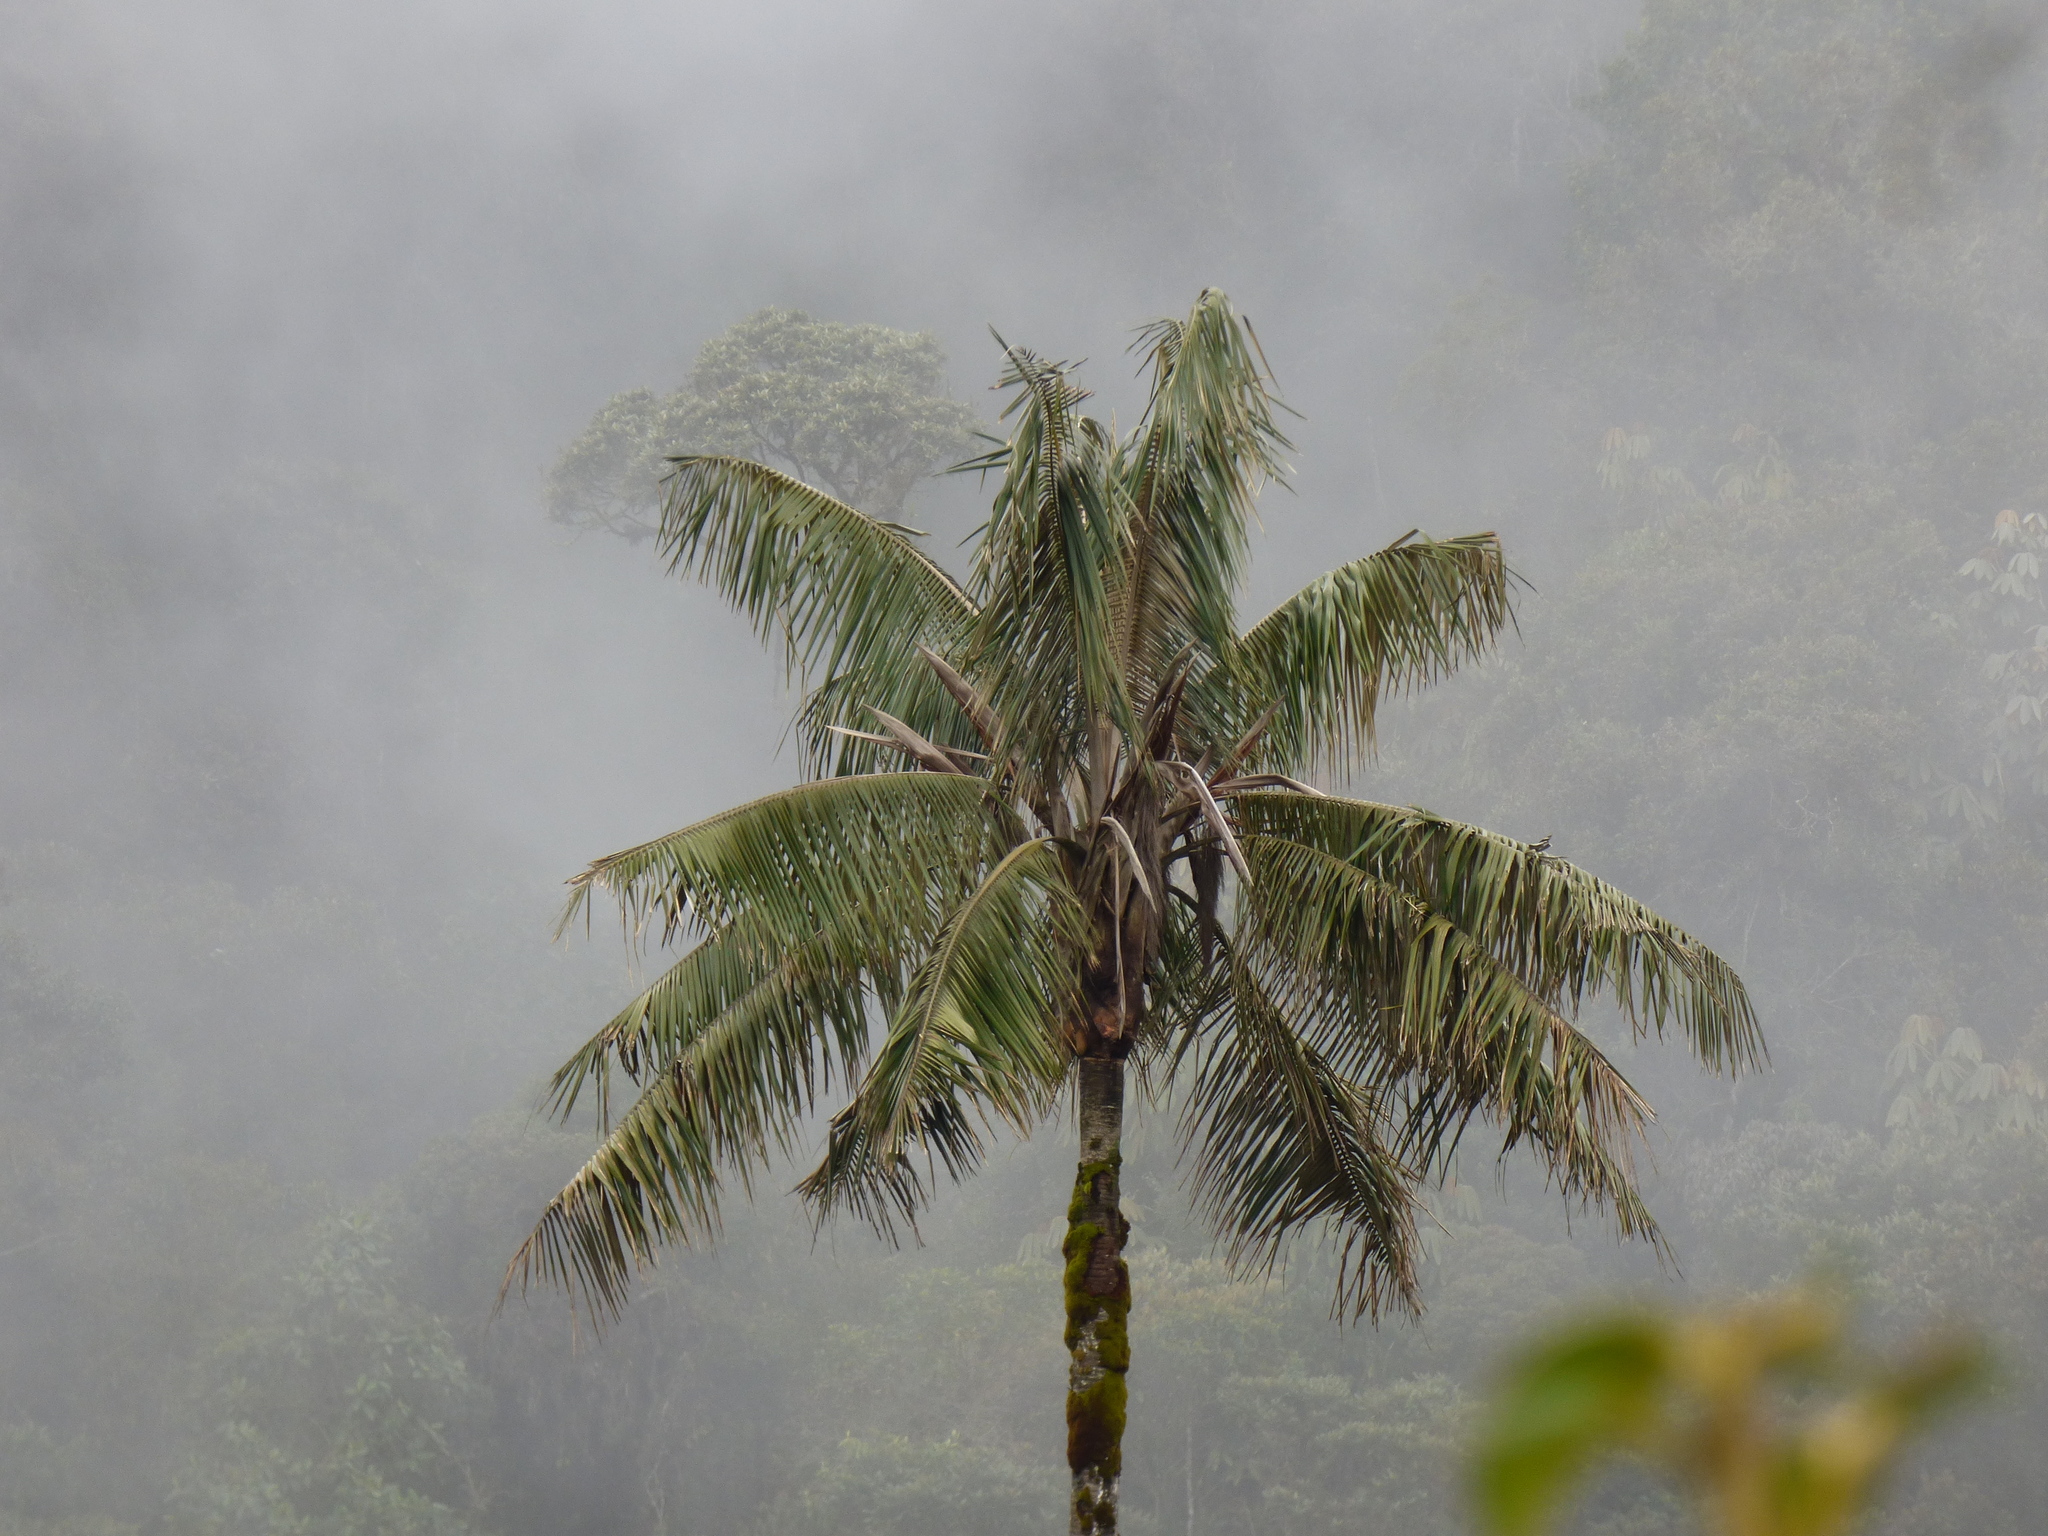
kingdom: Plantae
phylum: Tracheophyta
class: Liliopsida
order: Arecales
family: Arecaceae
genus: Ceroxylon
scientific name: Ceroxylon quindiuense
